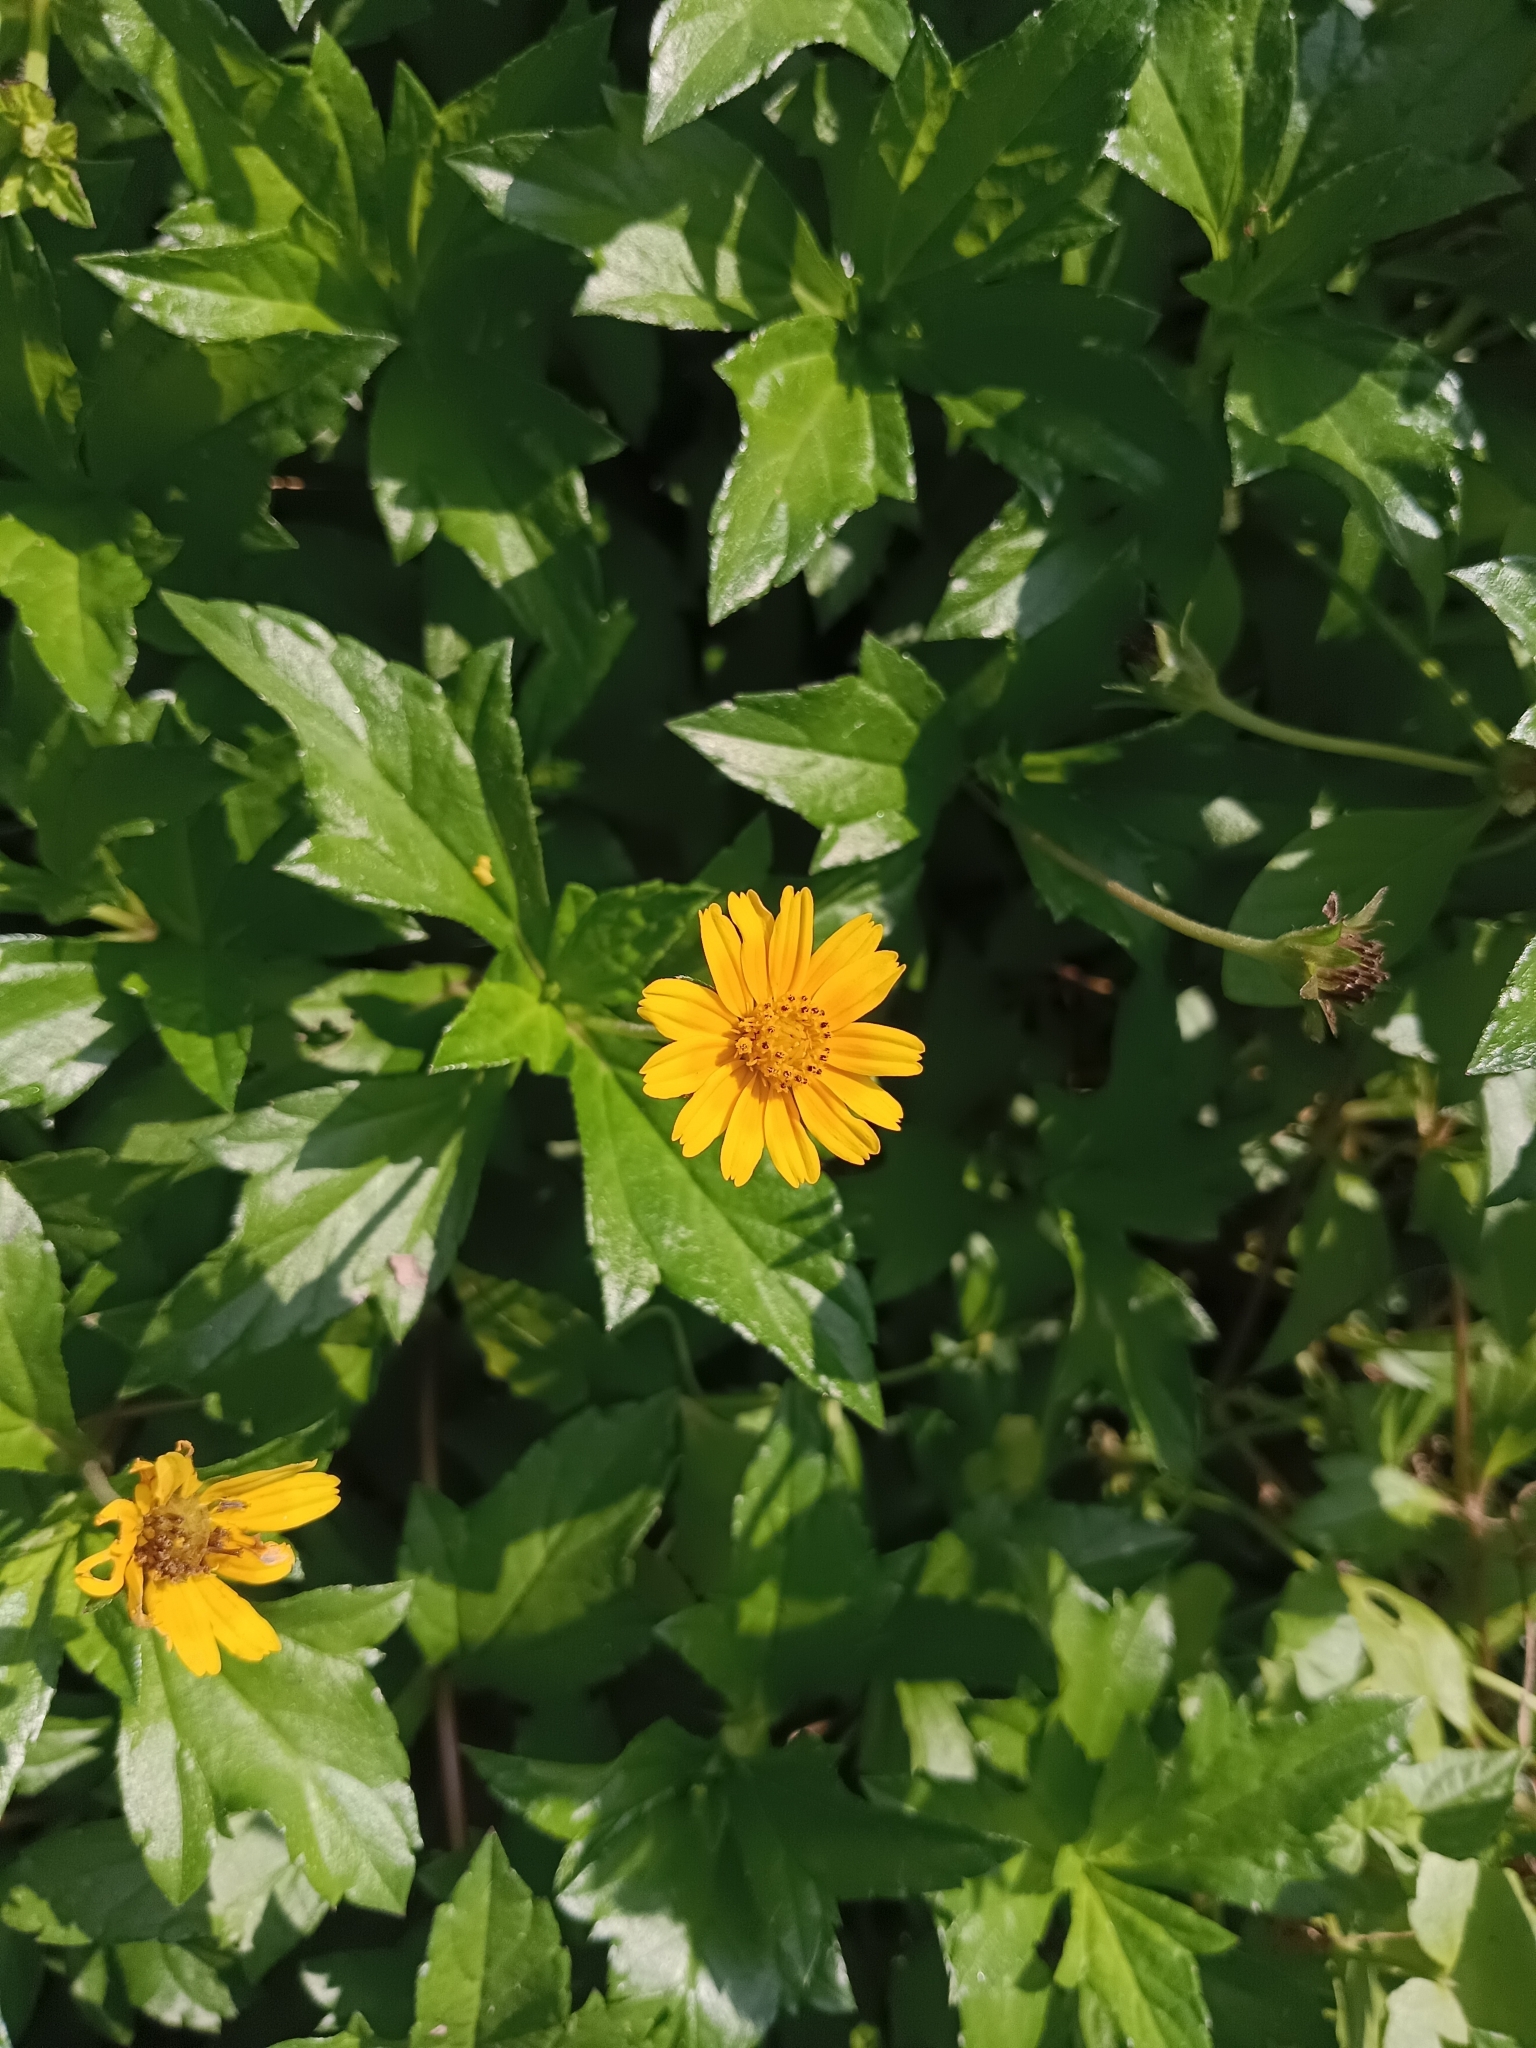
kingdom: Plantae
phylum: Tracheophyta
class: Magnoliopsida
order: Asterales
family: Asteraceae
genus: Sphagneticola
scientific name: Sphagneticola trilobata
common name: Bay biscayne creeping-oxeye
